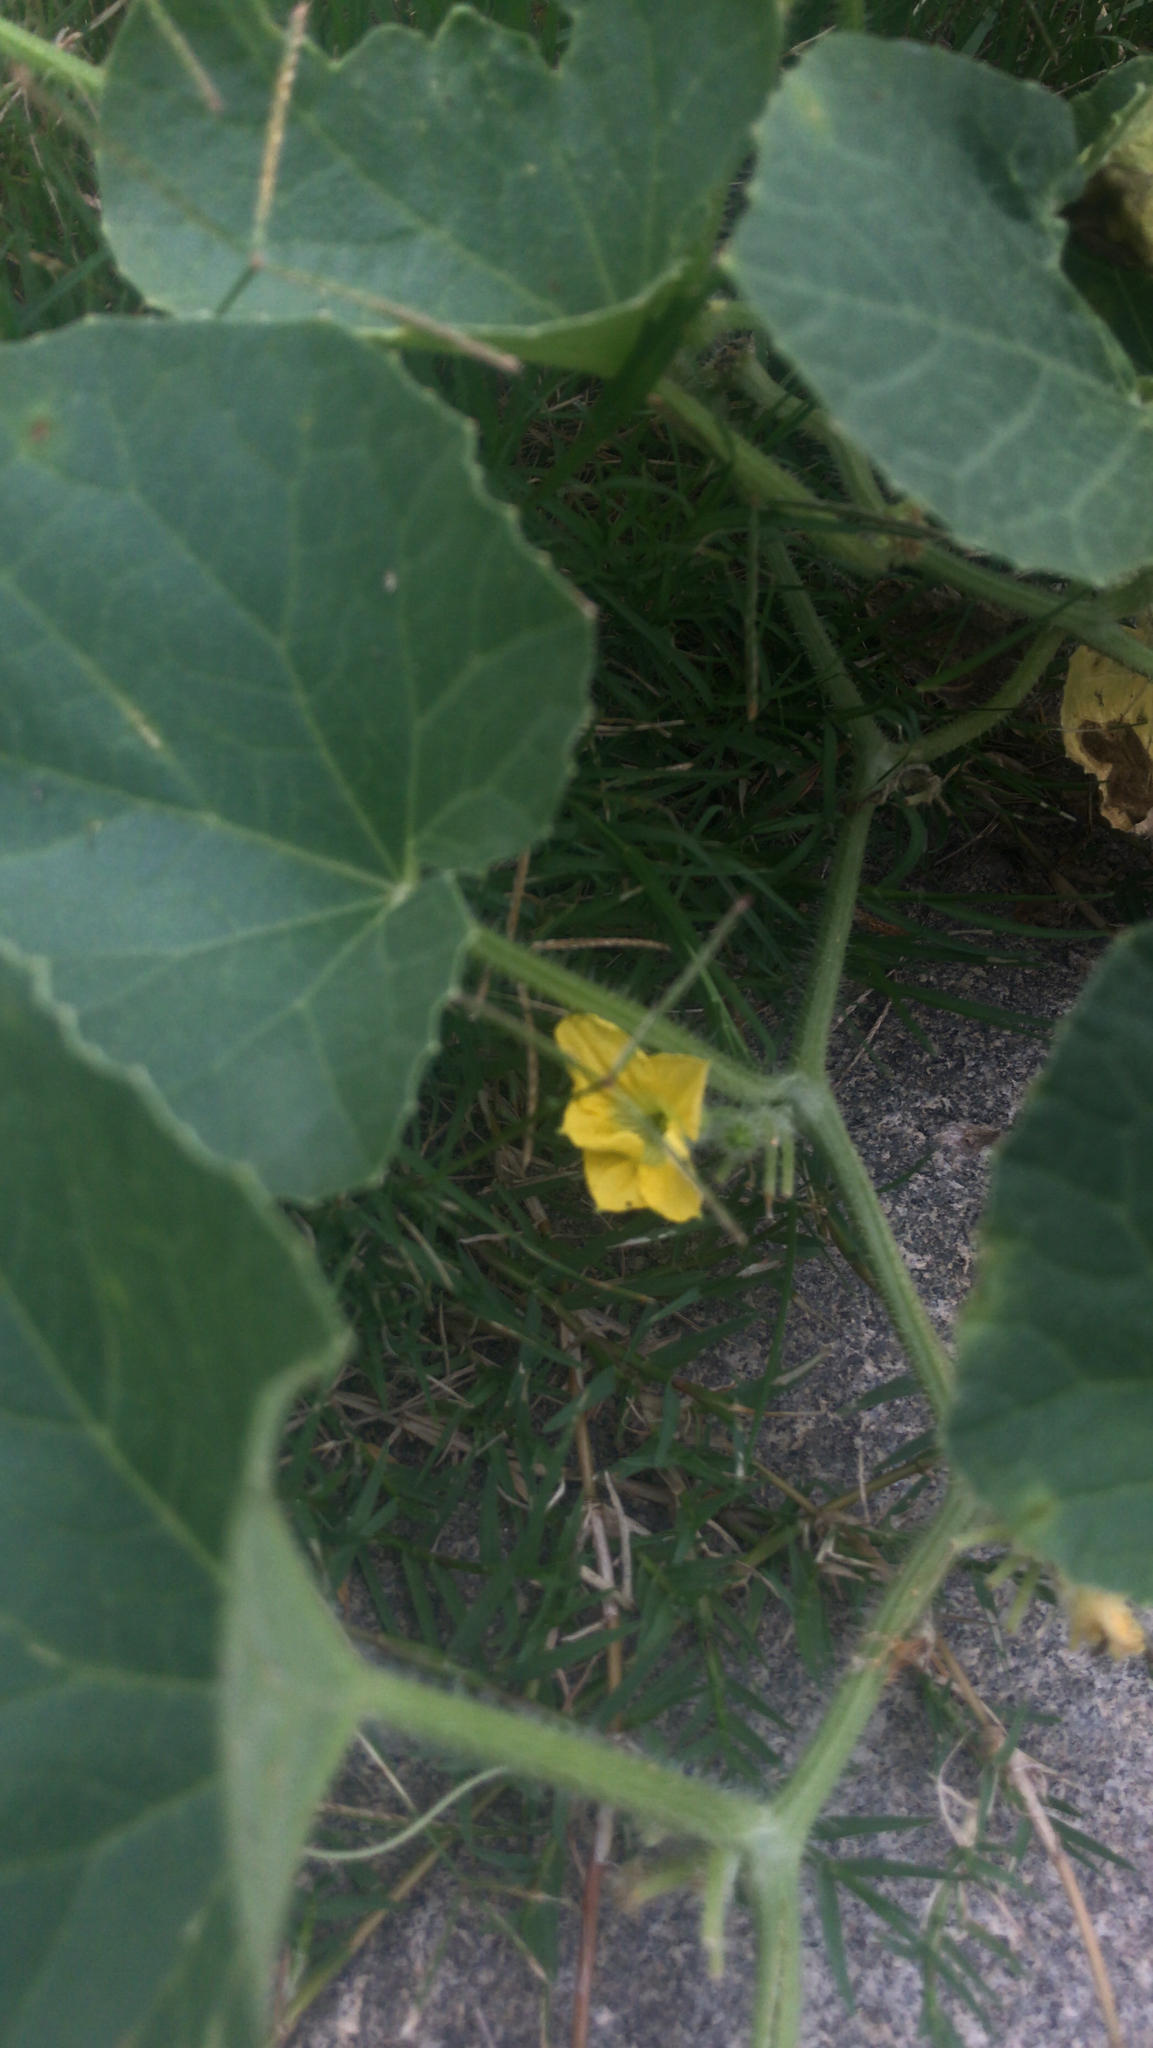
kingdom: Plantae
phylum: Tracheophyta
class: Magnoliopsida
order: Cucurbitales
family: Cucurbitaceae
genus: Cucumis
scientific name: Cucumis melo
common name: Melon
